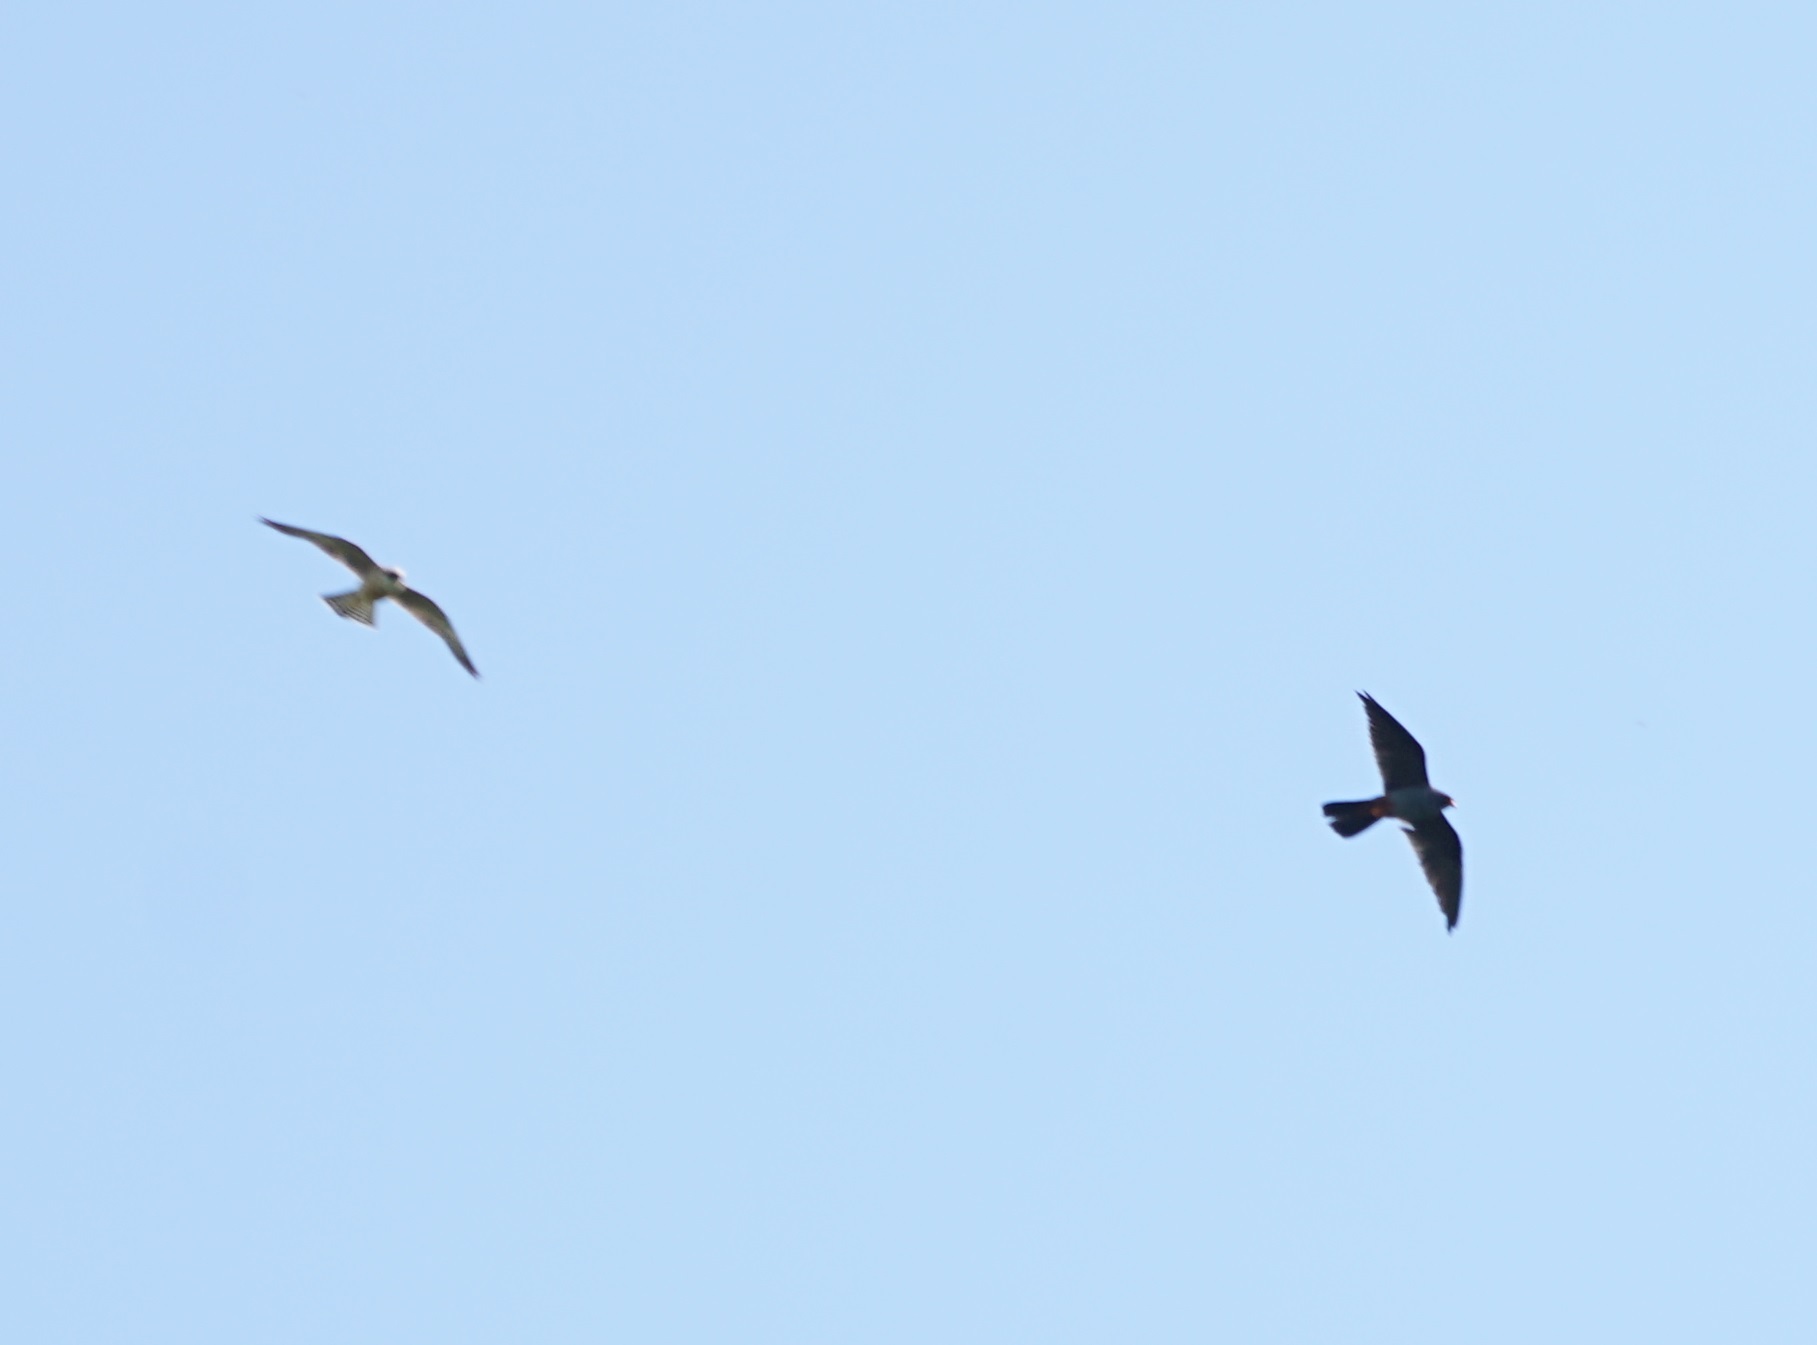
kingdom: Animalia
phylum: Chordata
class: Aves
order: Falconiformes
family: Falconidae
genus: Falco
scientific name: Falco vespertinus
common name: Red-footed falcon
